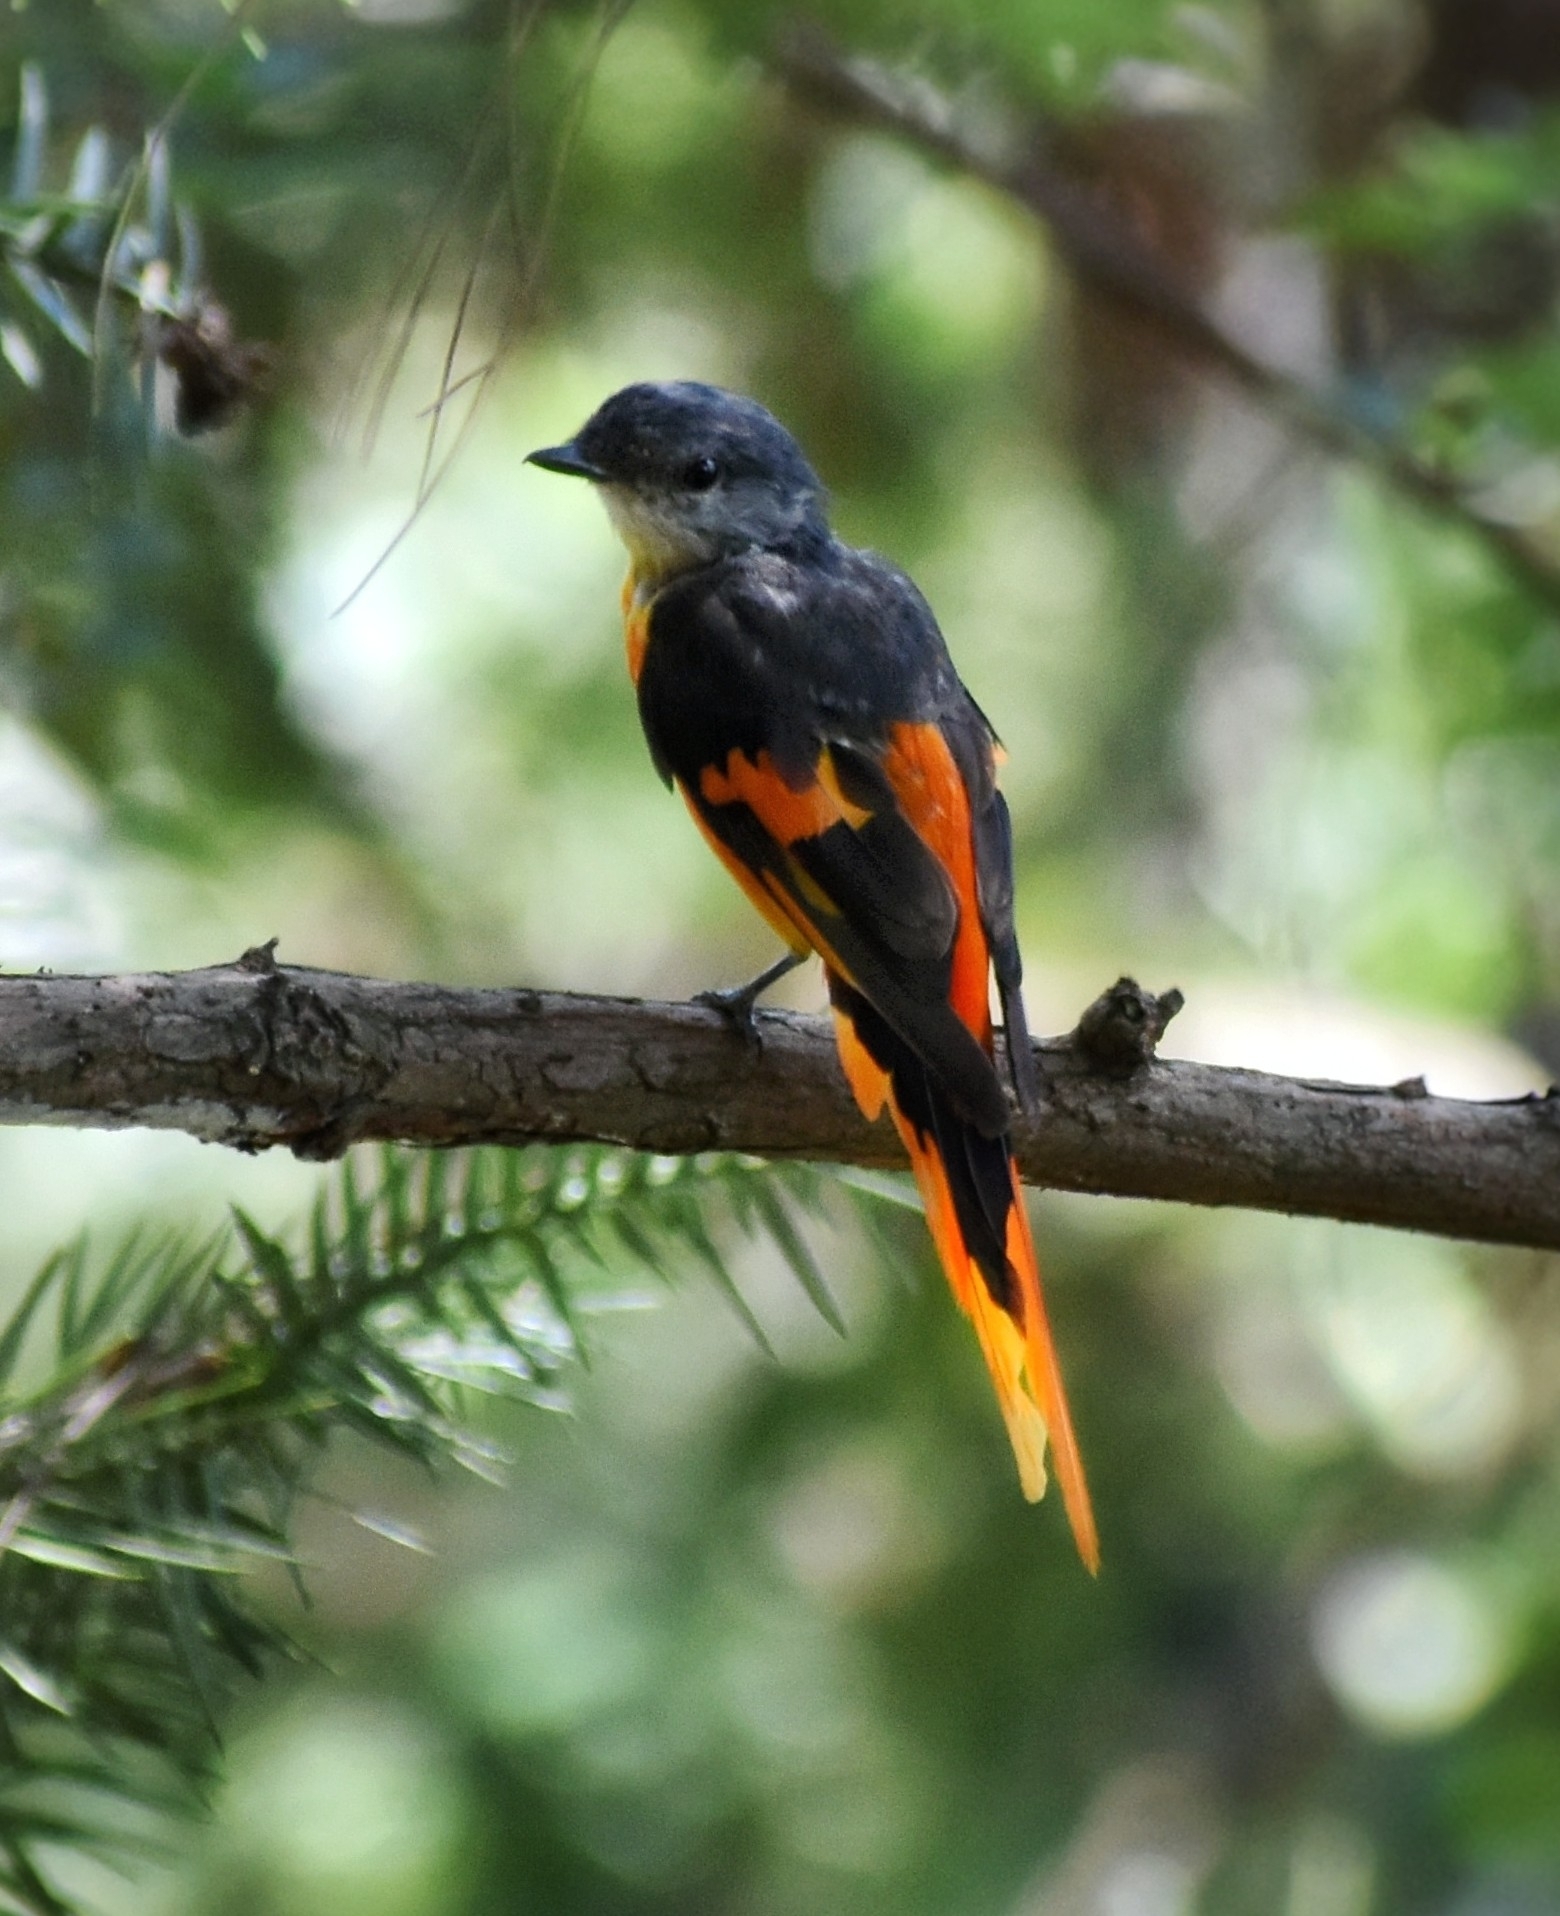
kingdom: Animalia
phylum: Chordata
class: Aves
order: Passeriformes
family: Campephagidae
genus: Pericrocotus
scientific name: Pericrocotus solaris
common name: Grey-chinned minivet
